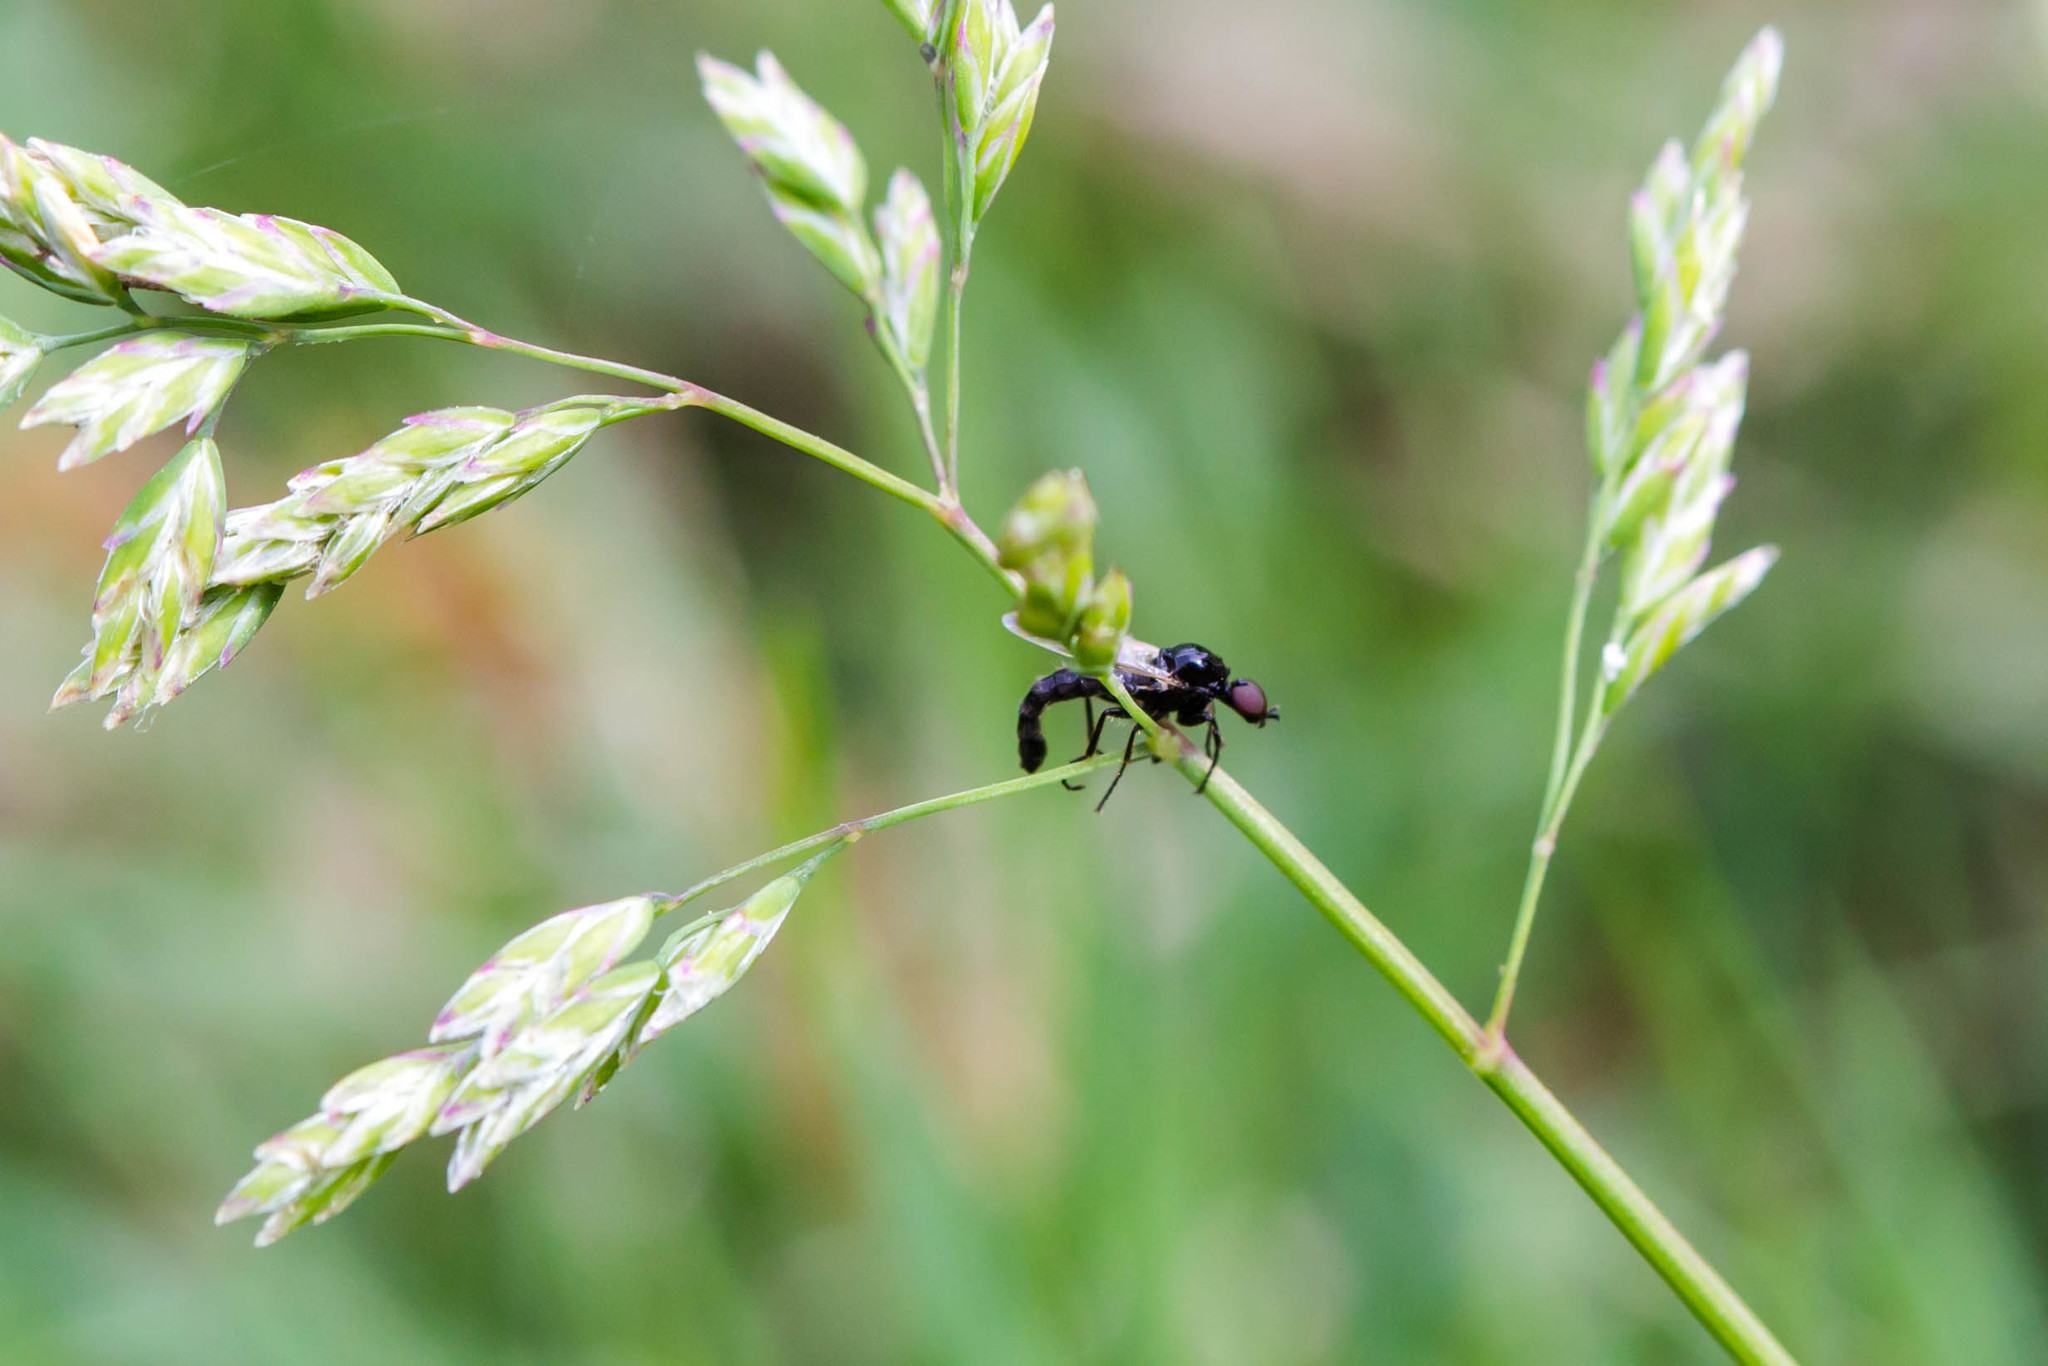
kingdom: Animalia
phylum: Arthropoda
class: Insecta
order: Diptera
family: Bibionidae
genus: Dilophus
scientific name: Dilophus
